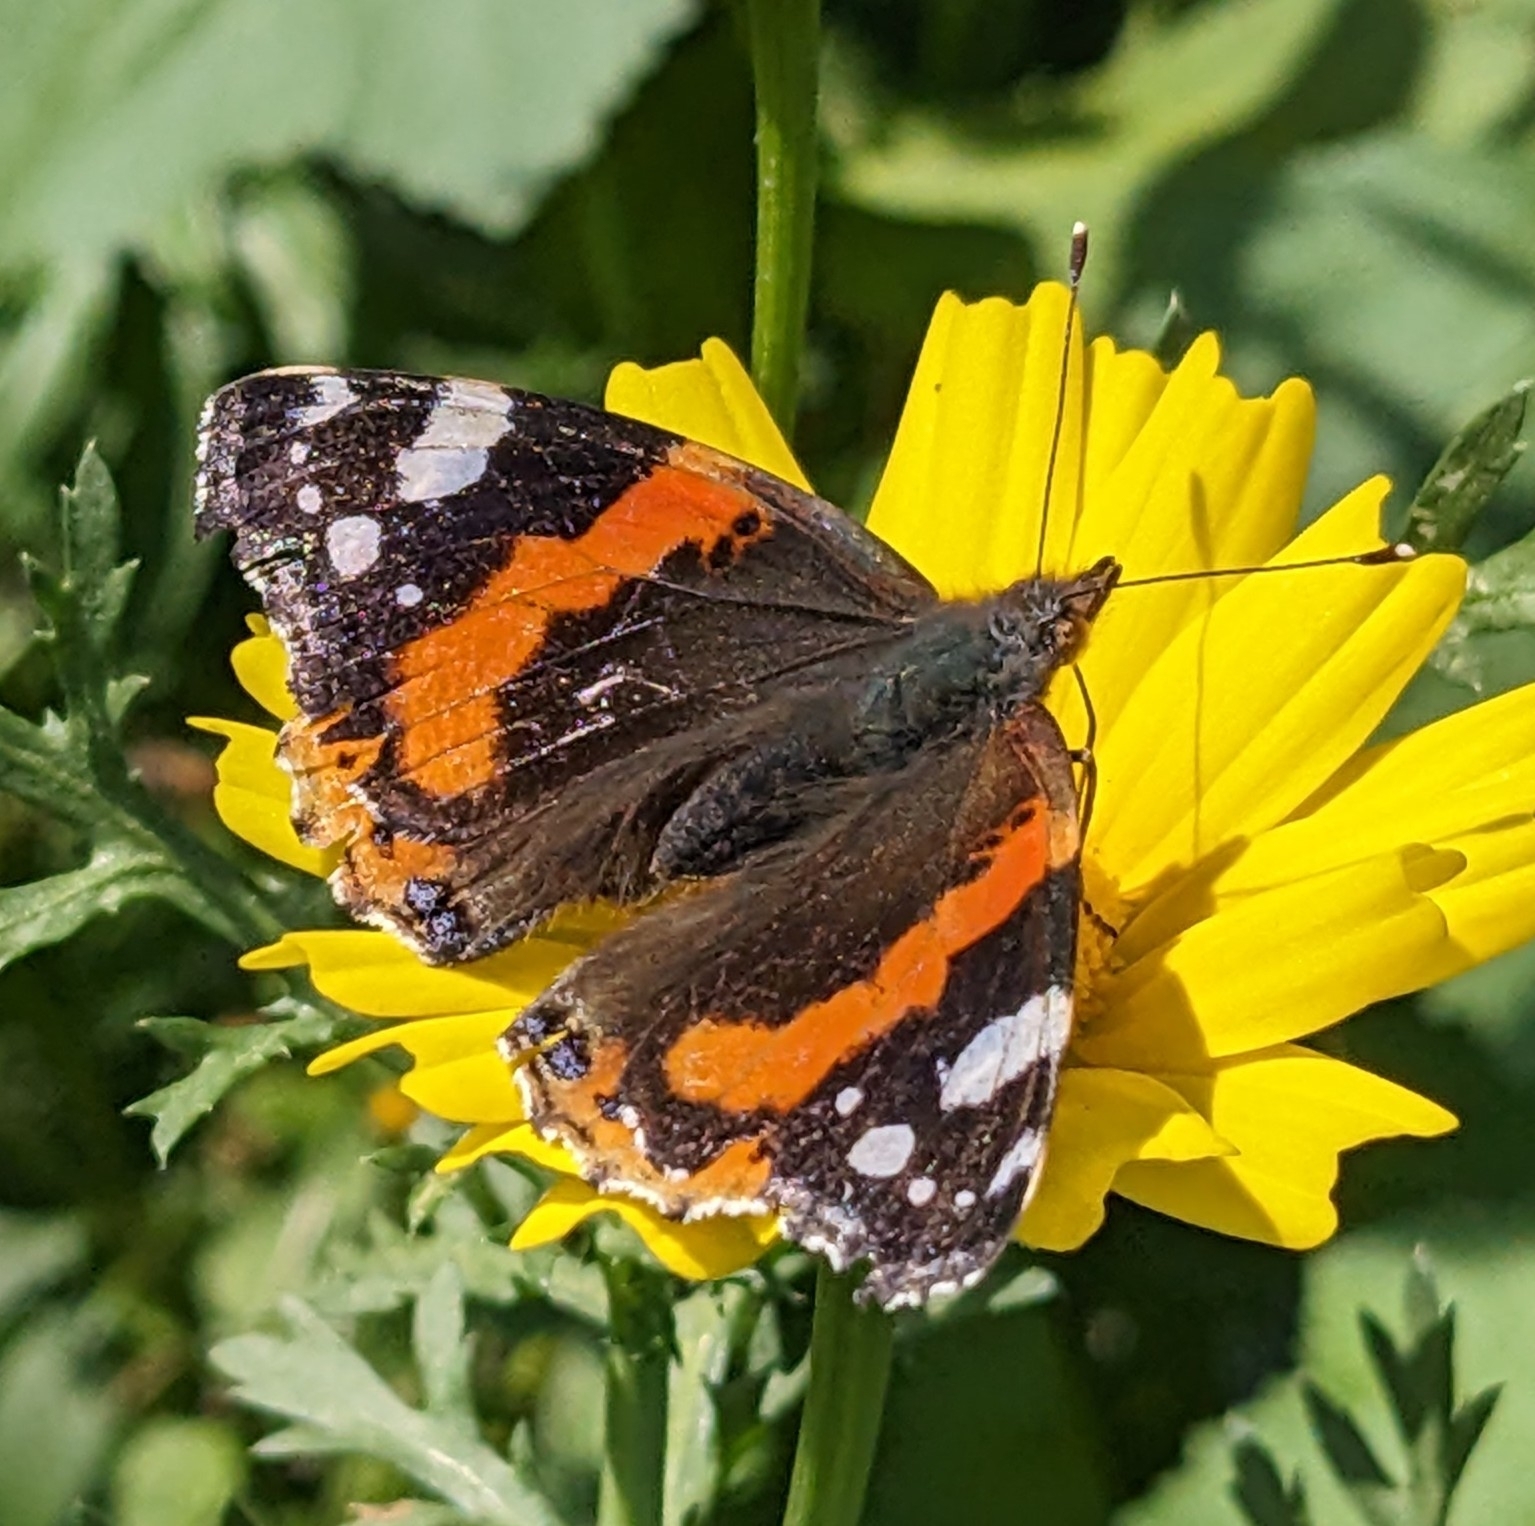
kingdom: Animalia
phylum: Arthropoda
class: Insecta
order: Lepidoptera
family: Nymphalidae
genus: Vanessa
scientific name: Vanessa atalanta
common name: Red admiral
